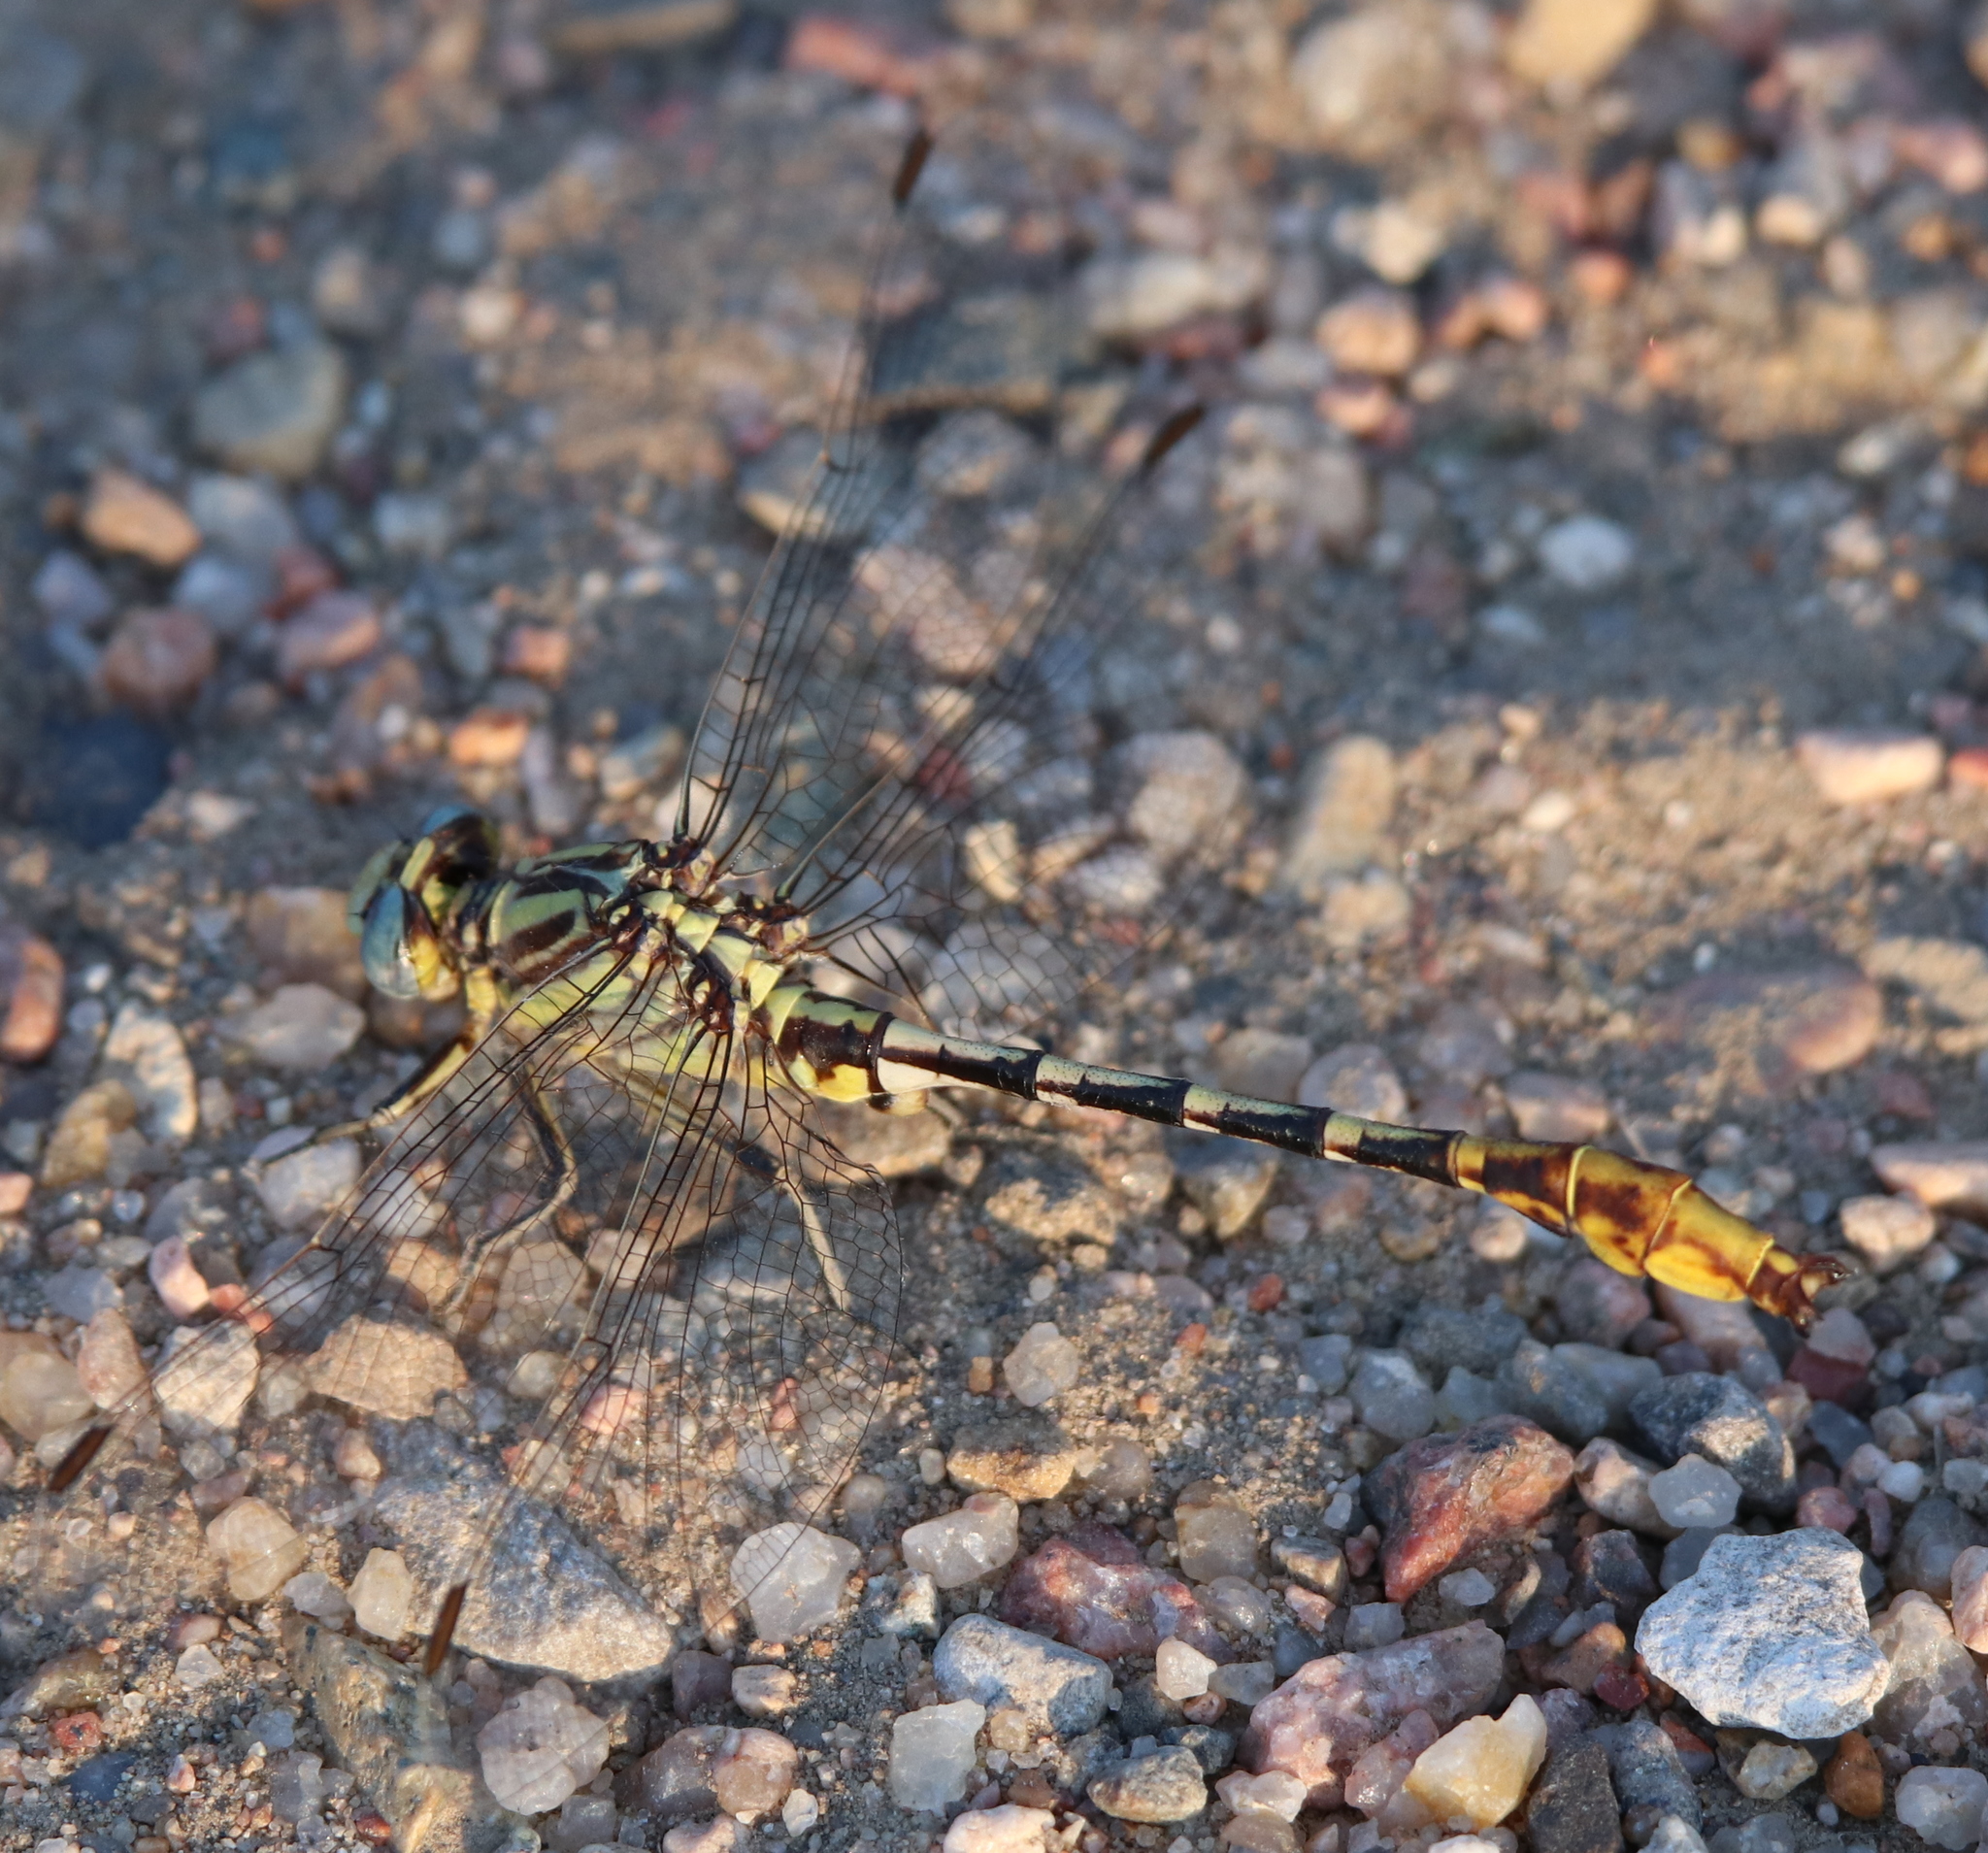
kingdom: Animalia
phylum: Arthropoda
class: Insecta
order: Odonata
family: Gomphidae
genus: Phanogomphus
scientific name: Phanogomphus militaris
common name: Sulphur-tipped clubtail
